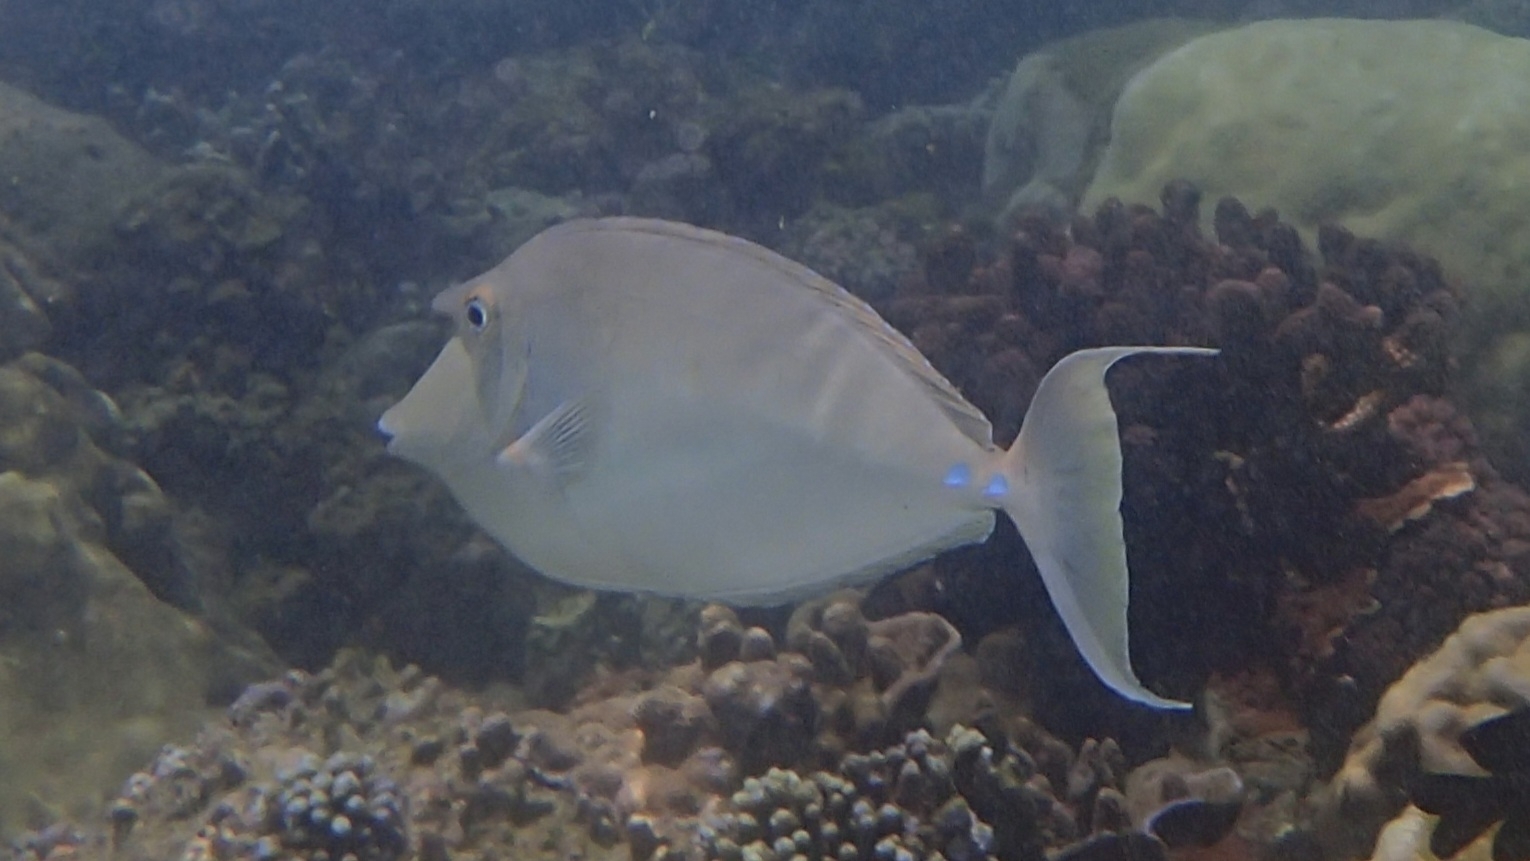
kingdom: Animalia
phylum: Chordata
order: Perciformes
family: Acanthuridae
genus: Naso
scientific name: Naso unicornis
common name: Bluespine unicornfish
